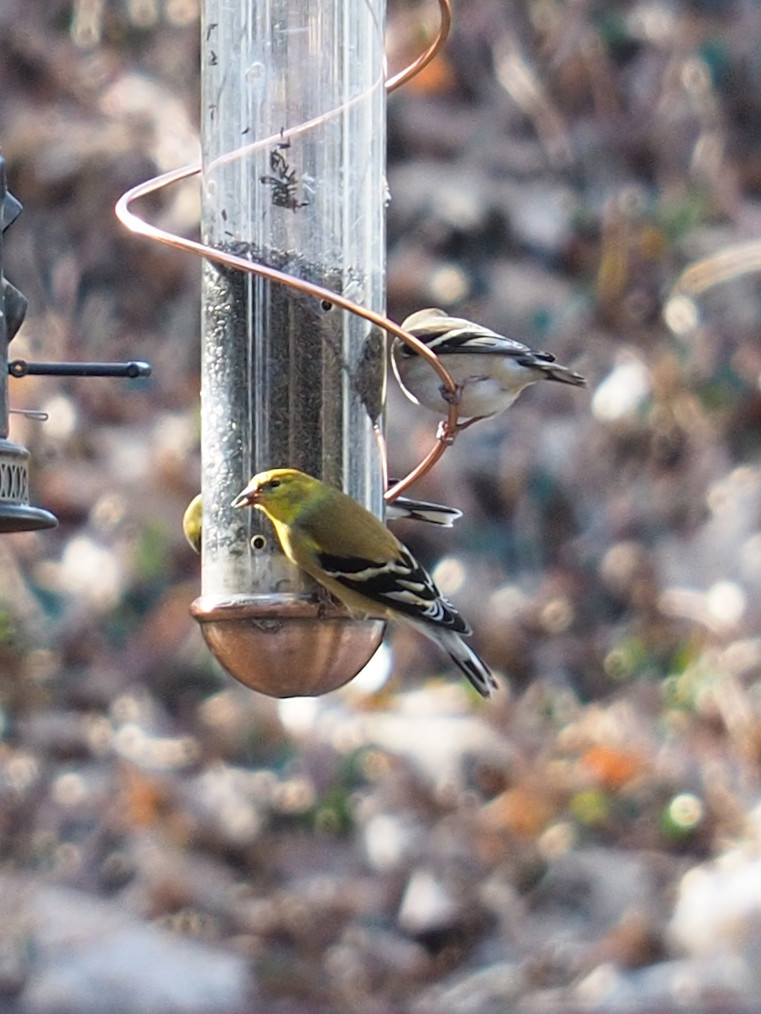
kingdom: Animalia
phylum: Chordata
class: Aves
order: Passeriformes
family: Fringillidae
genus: Spinus
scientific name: Spinus tristis
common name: American goldfinch
